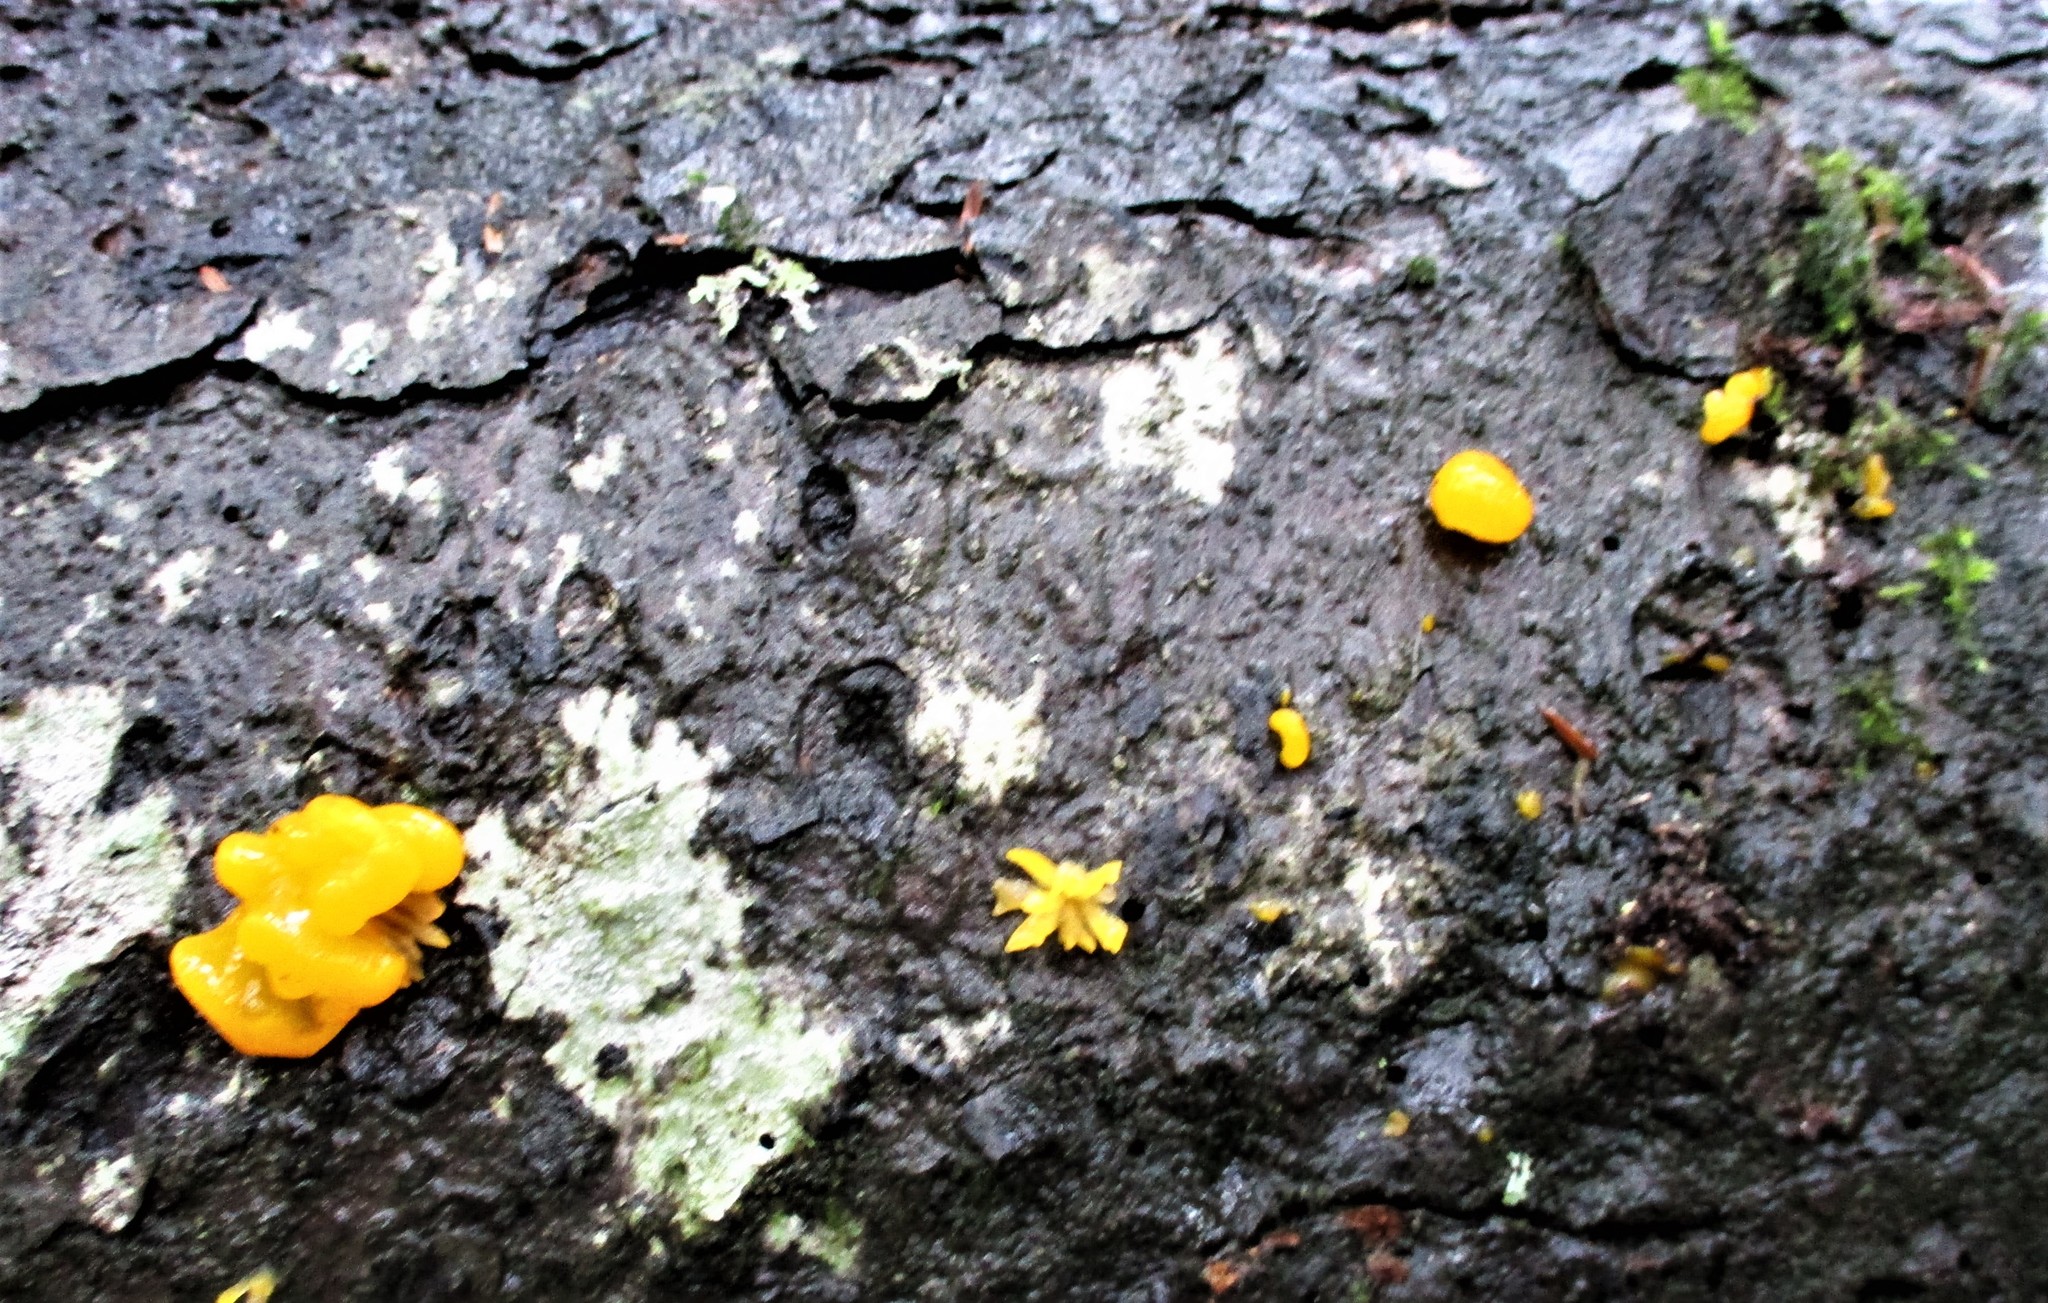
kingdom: Fungi
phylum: Basidiomycota
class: Dacrymycetes
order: Dacrymycetales
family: Dacrymycetaceae
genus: Dacrymyces
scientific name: Dacrymyces chrysospermus
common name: Orange jelly spot
